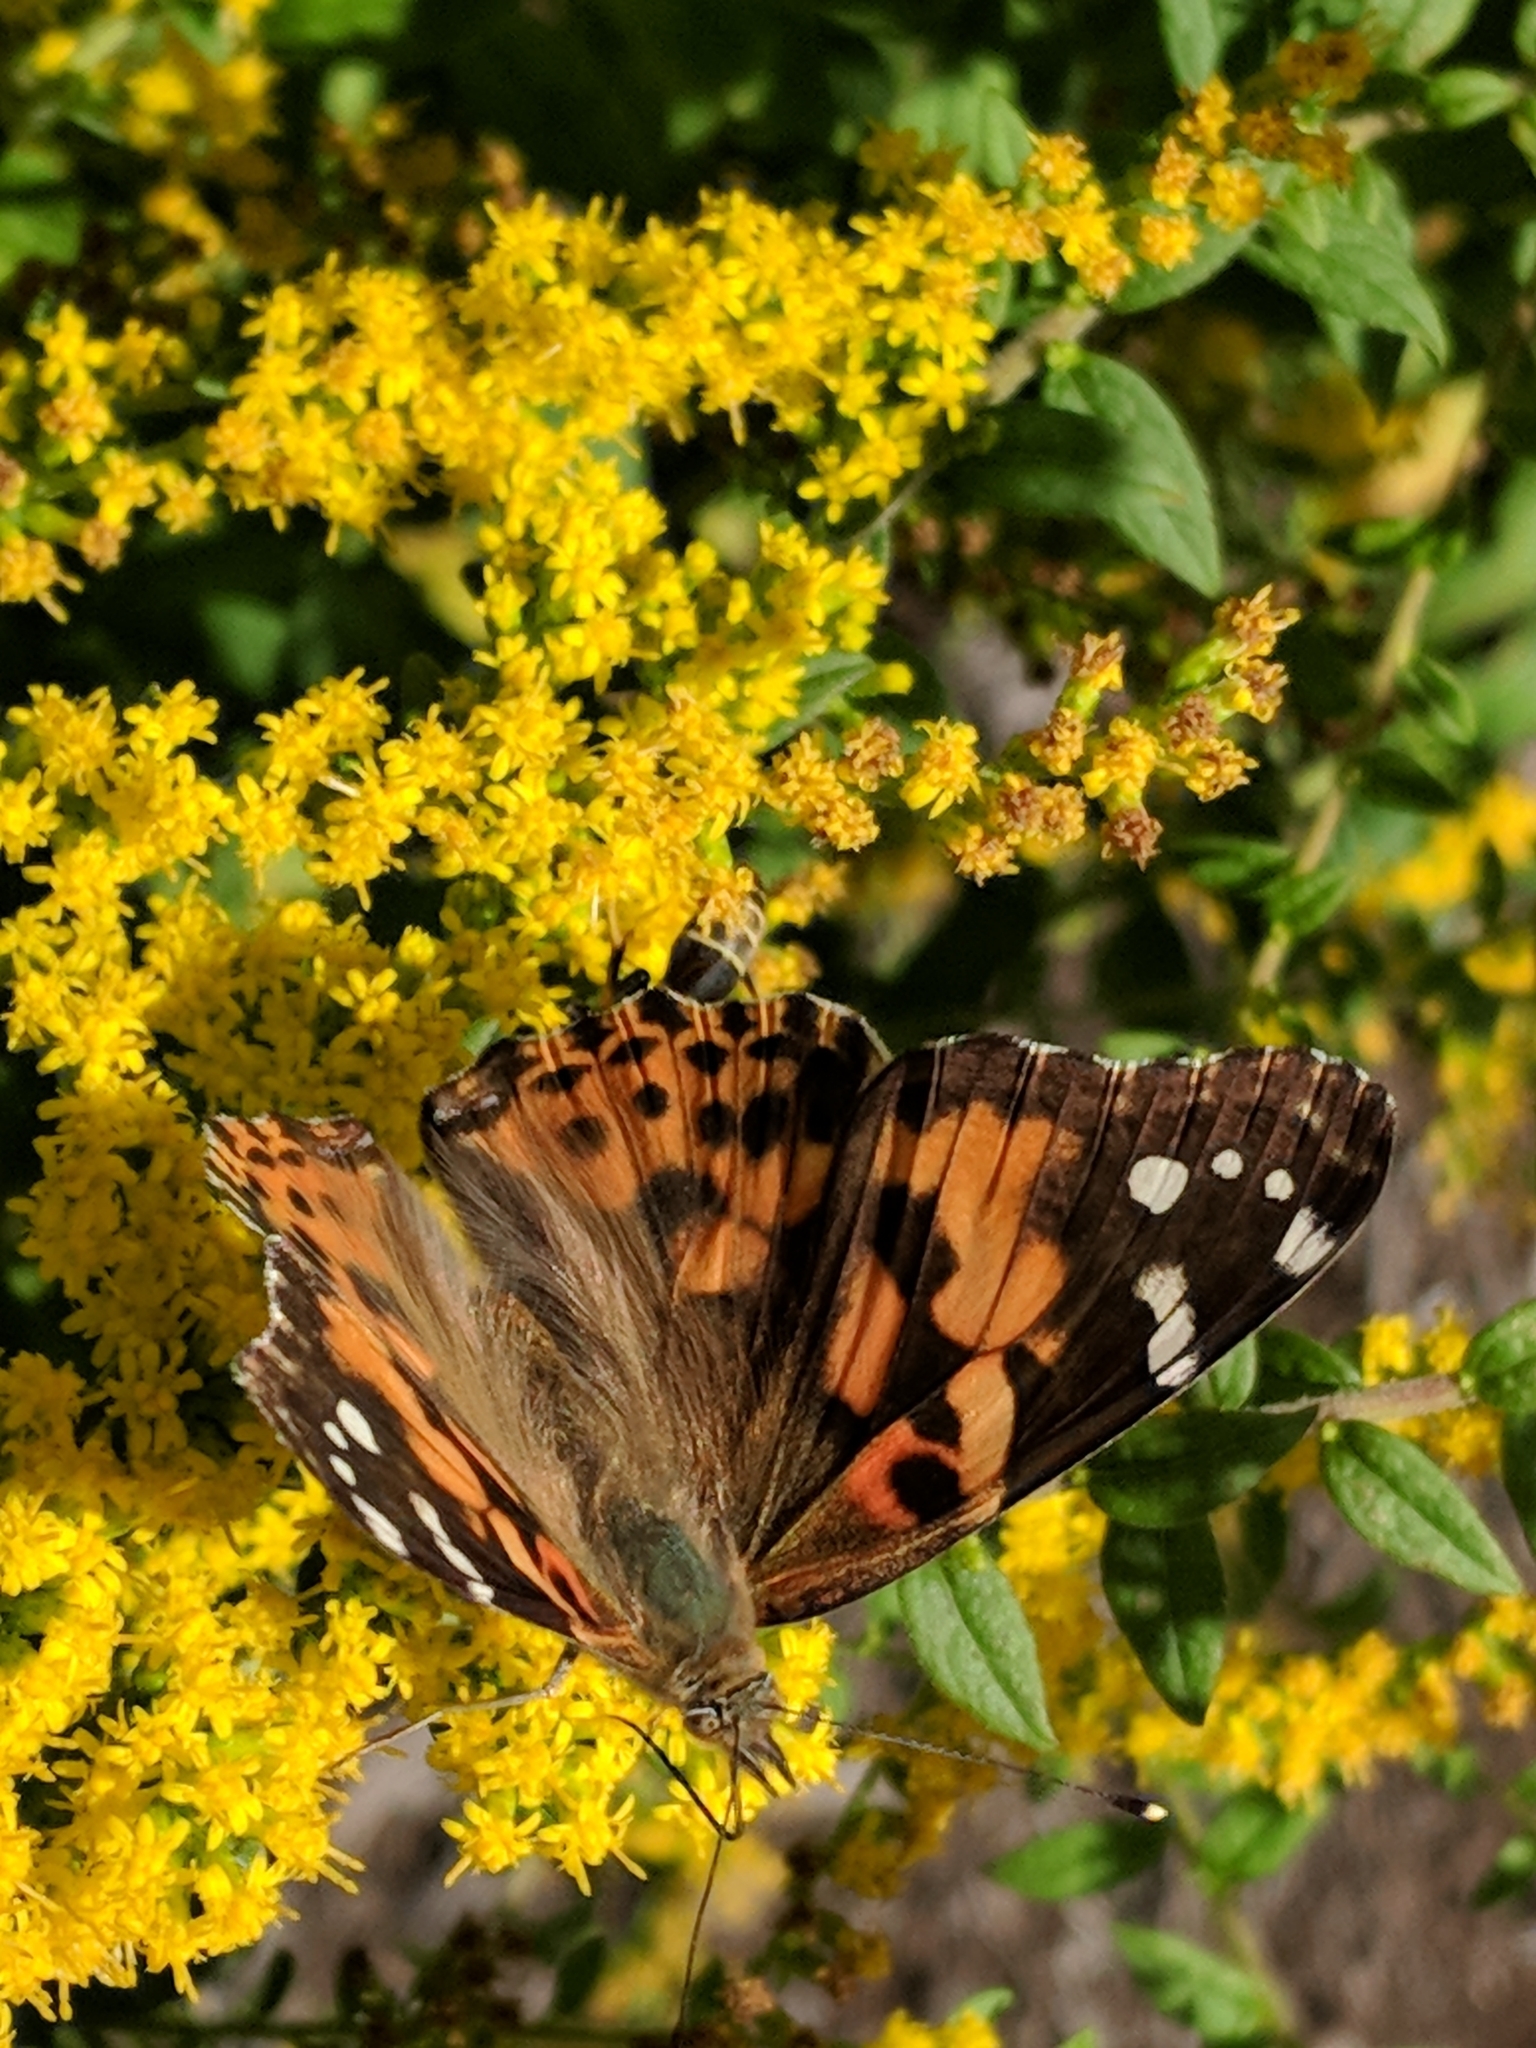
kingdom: Animalia
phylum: Arthropoda
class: Insecta
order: Lepidoptera
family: Nymphalidae
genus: Vanessa
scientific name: Vanessa cardui
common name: Painted lady
